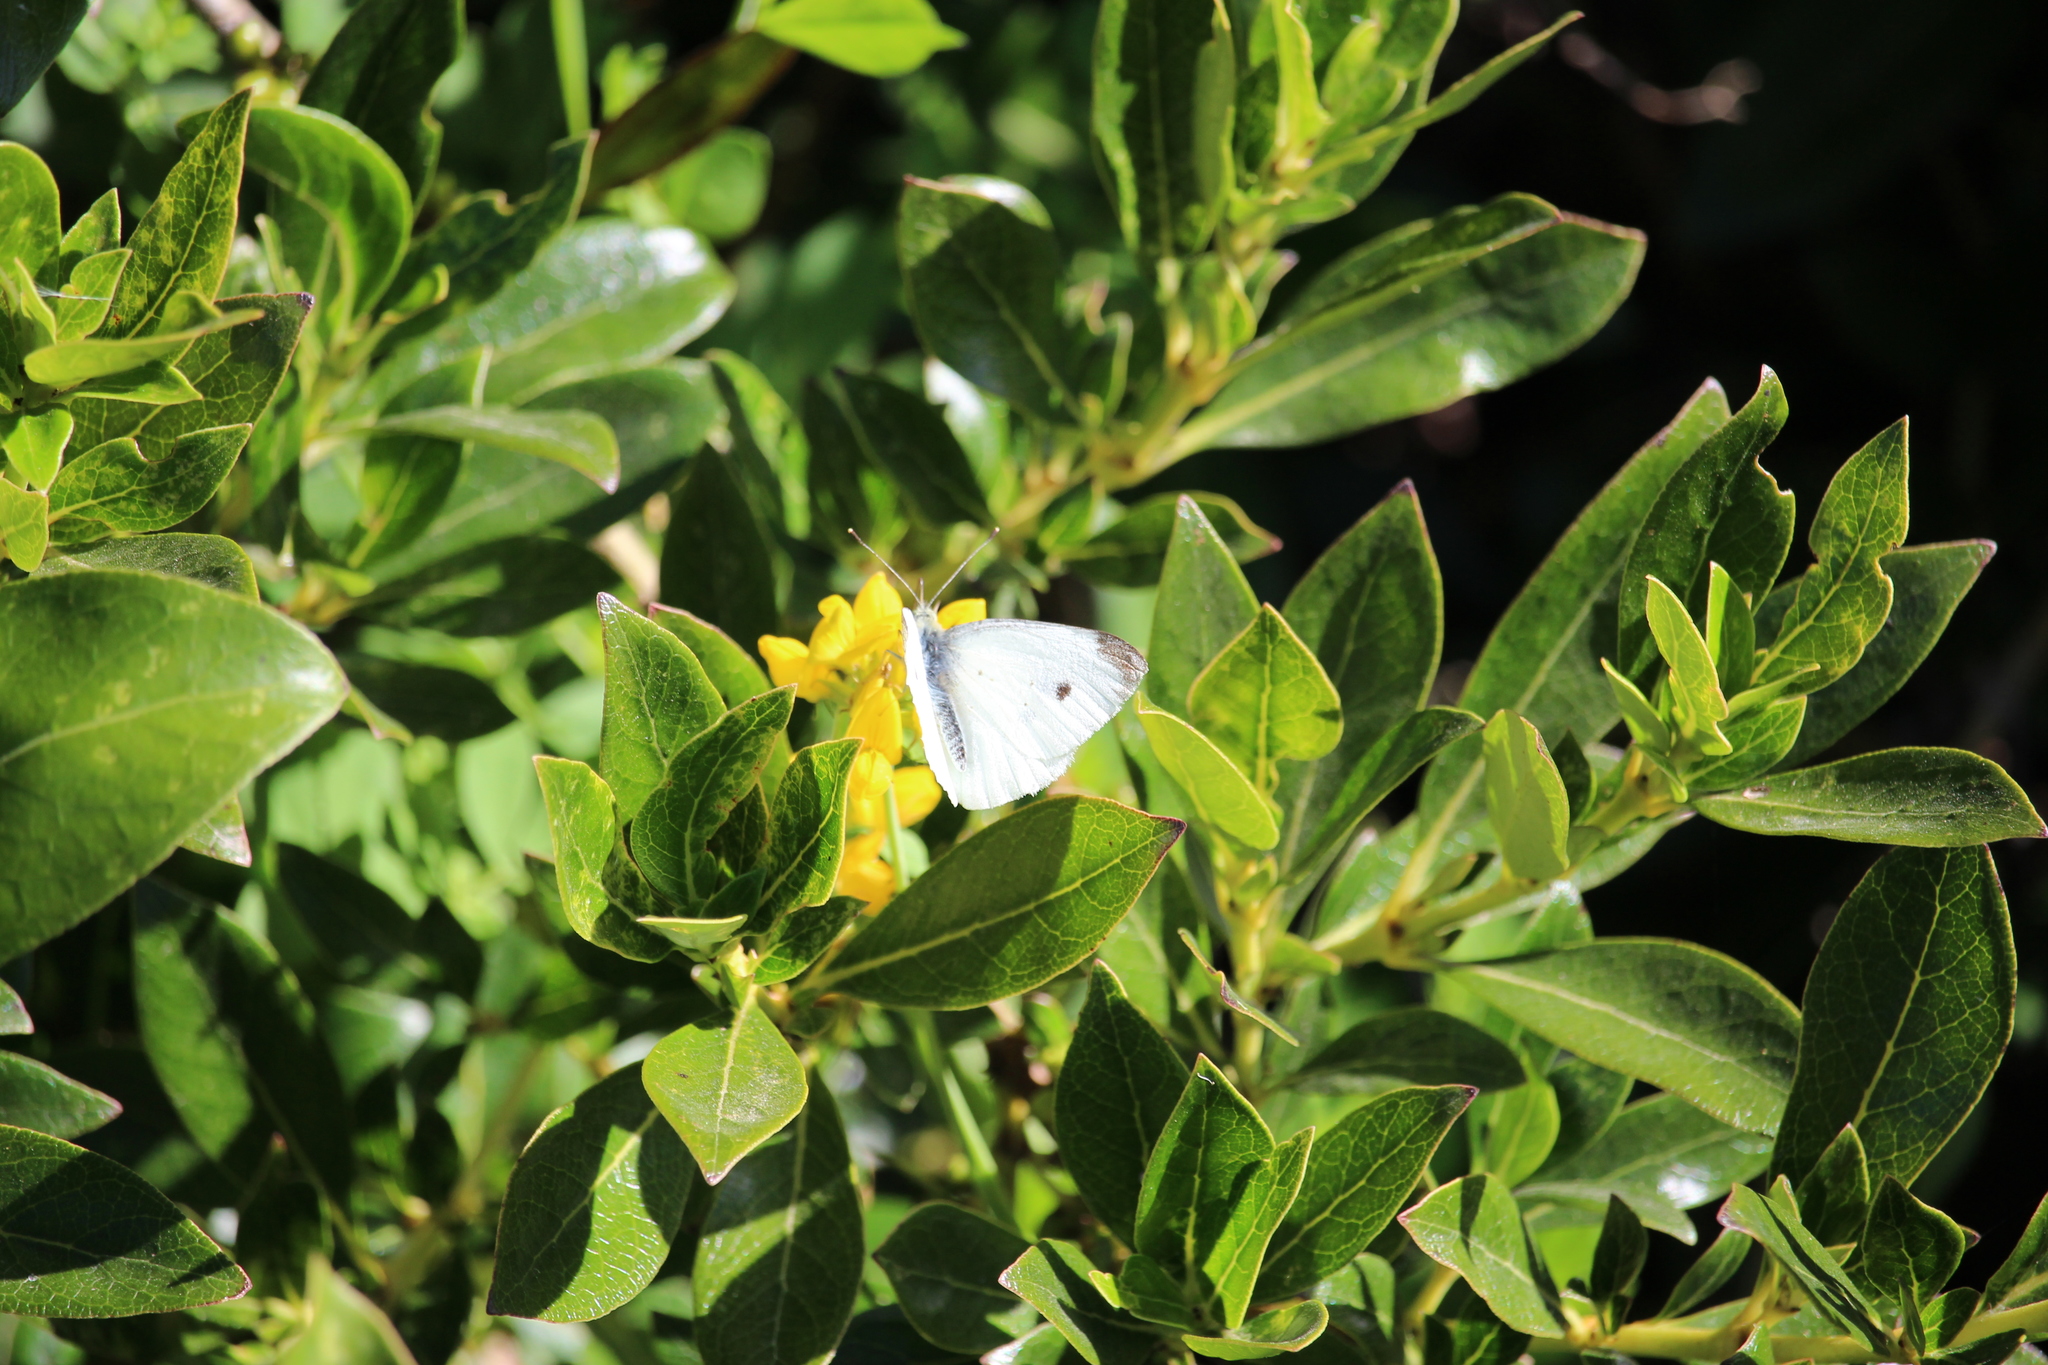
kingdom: Animalia
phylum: Arthropoda
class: Insecta
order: Lepidoptera
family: Pieridae
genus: Pieris
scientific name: Pieris rapae
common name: Small white
